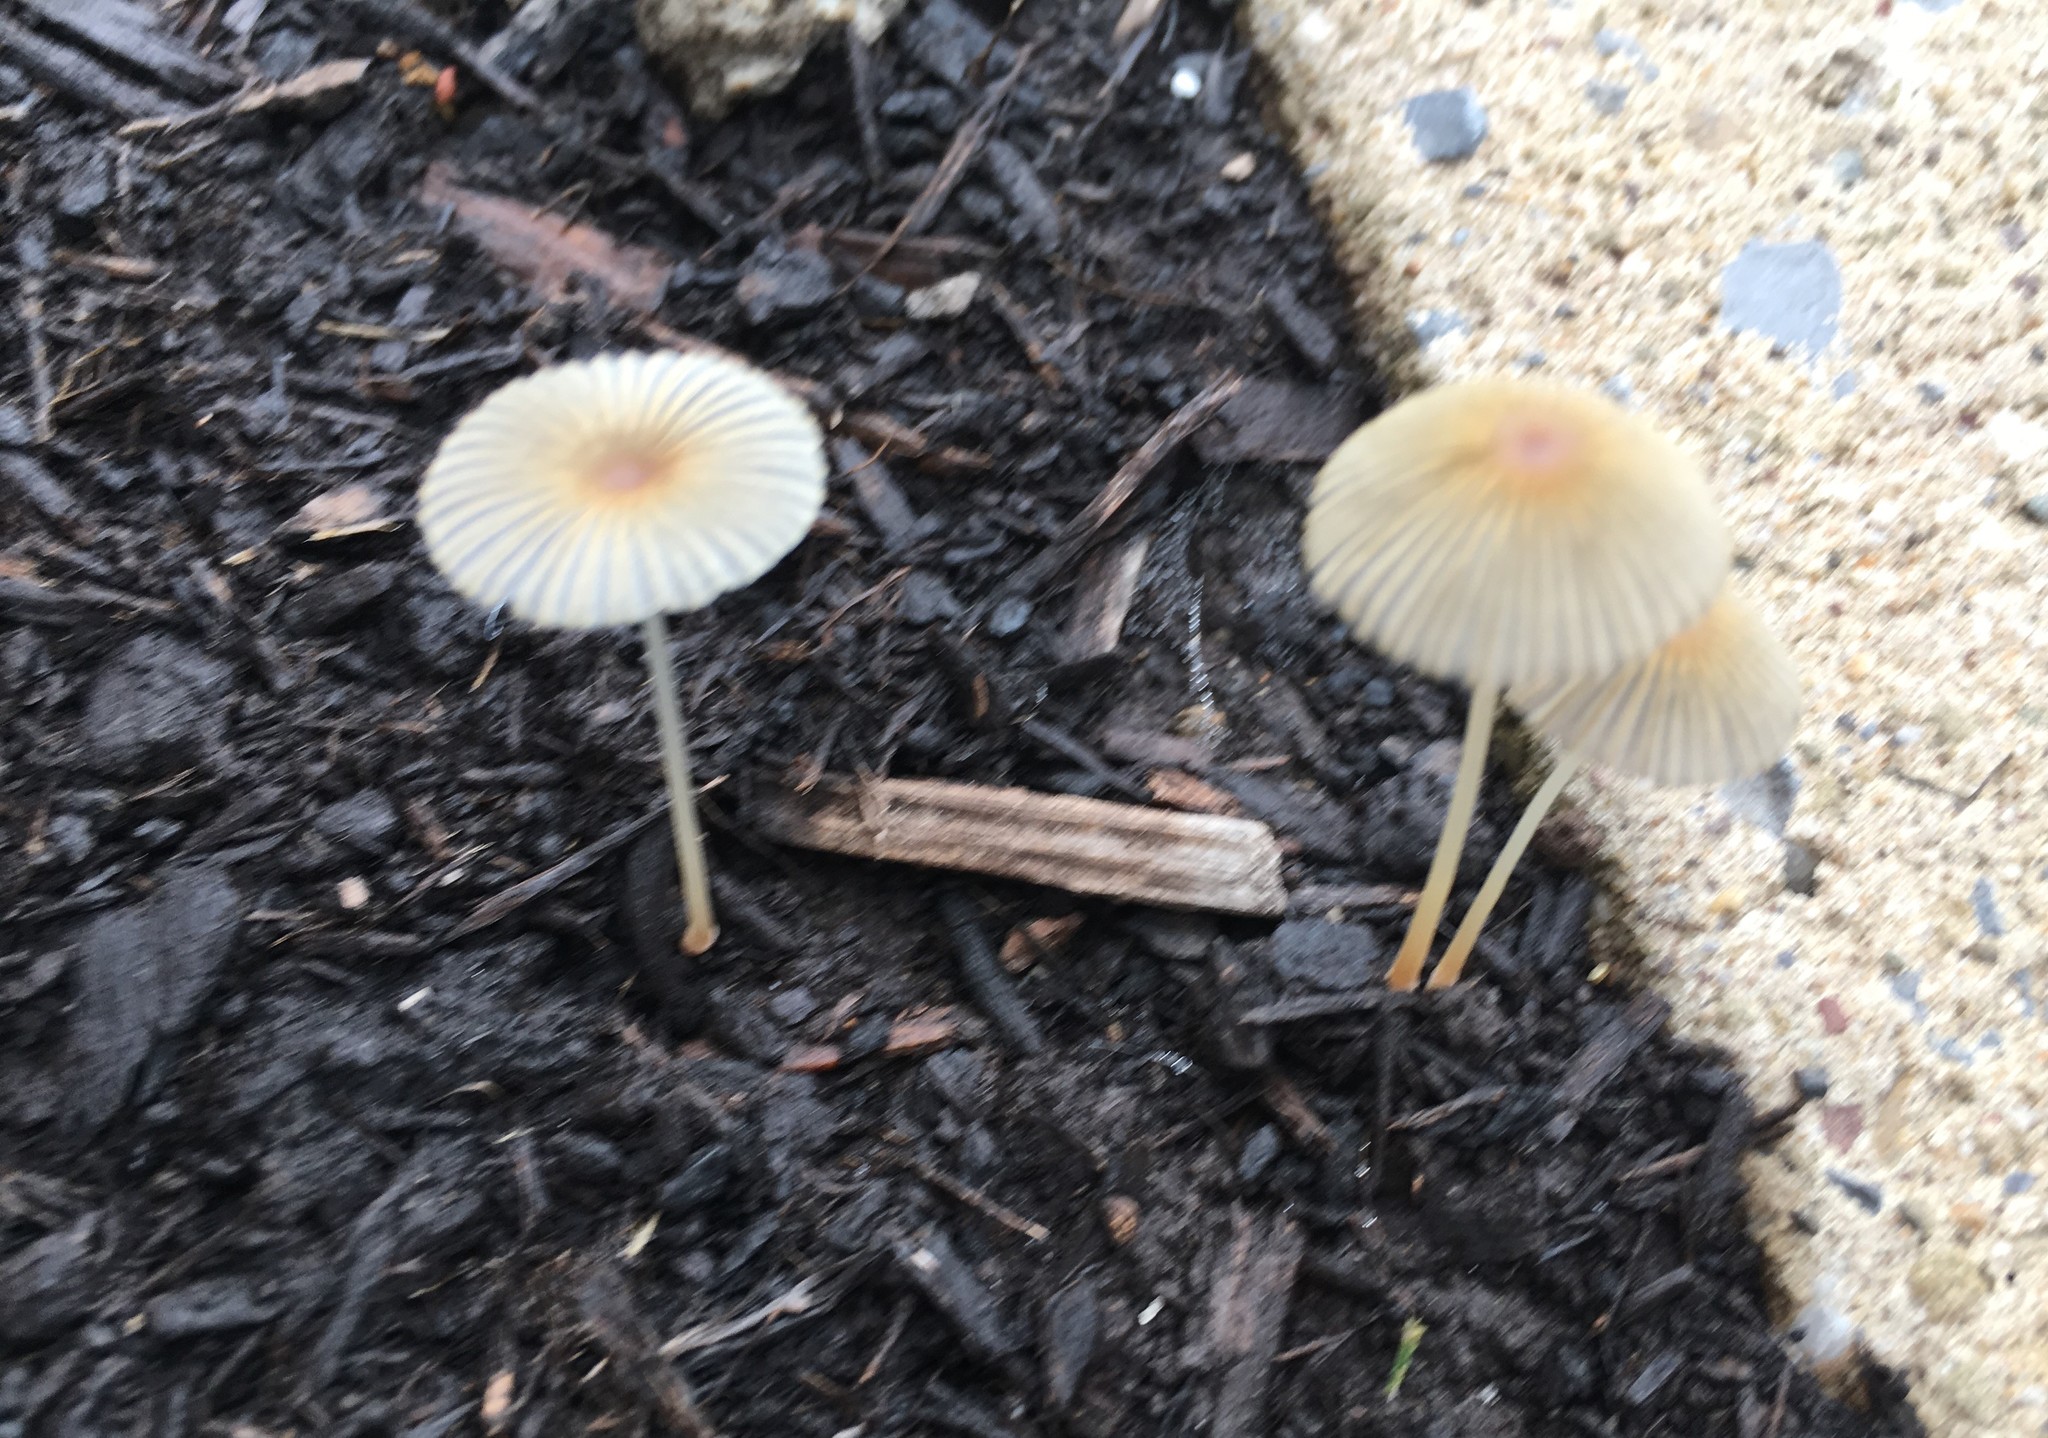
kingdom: Fungi
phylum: Basidiomycota
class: Agaricomycetes
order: Agaricales
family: Psathyrellaceae
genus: Parasola
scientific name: Parasola plicatilis
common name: Pleated inkcap
